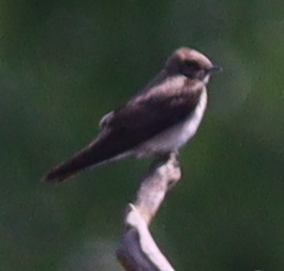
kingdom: Animalia
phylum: Chordata
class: Aves
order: Passeriformes
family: Hirundinidae
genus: Stelgidopteryx
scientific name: Stelgidopteryx serripennis
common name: Northern rough-winged swallow
